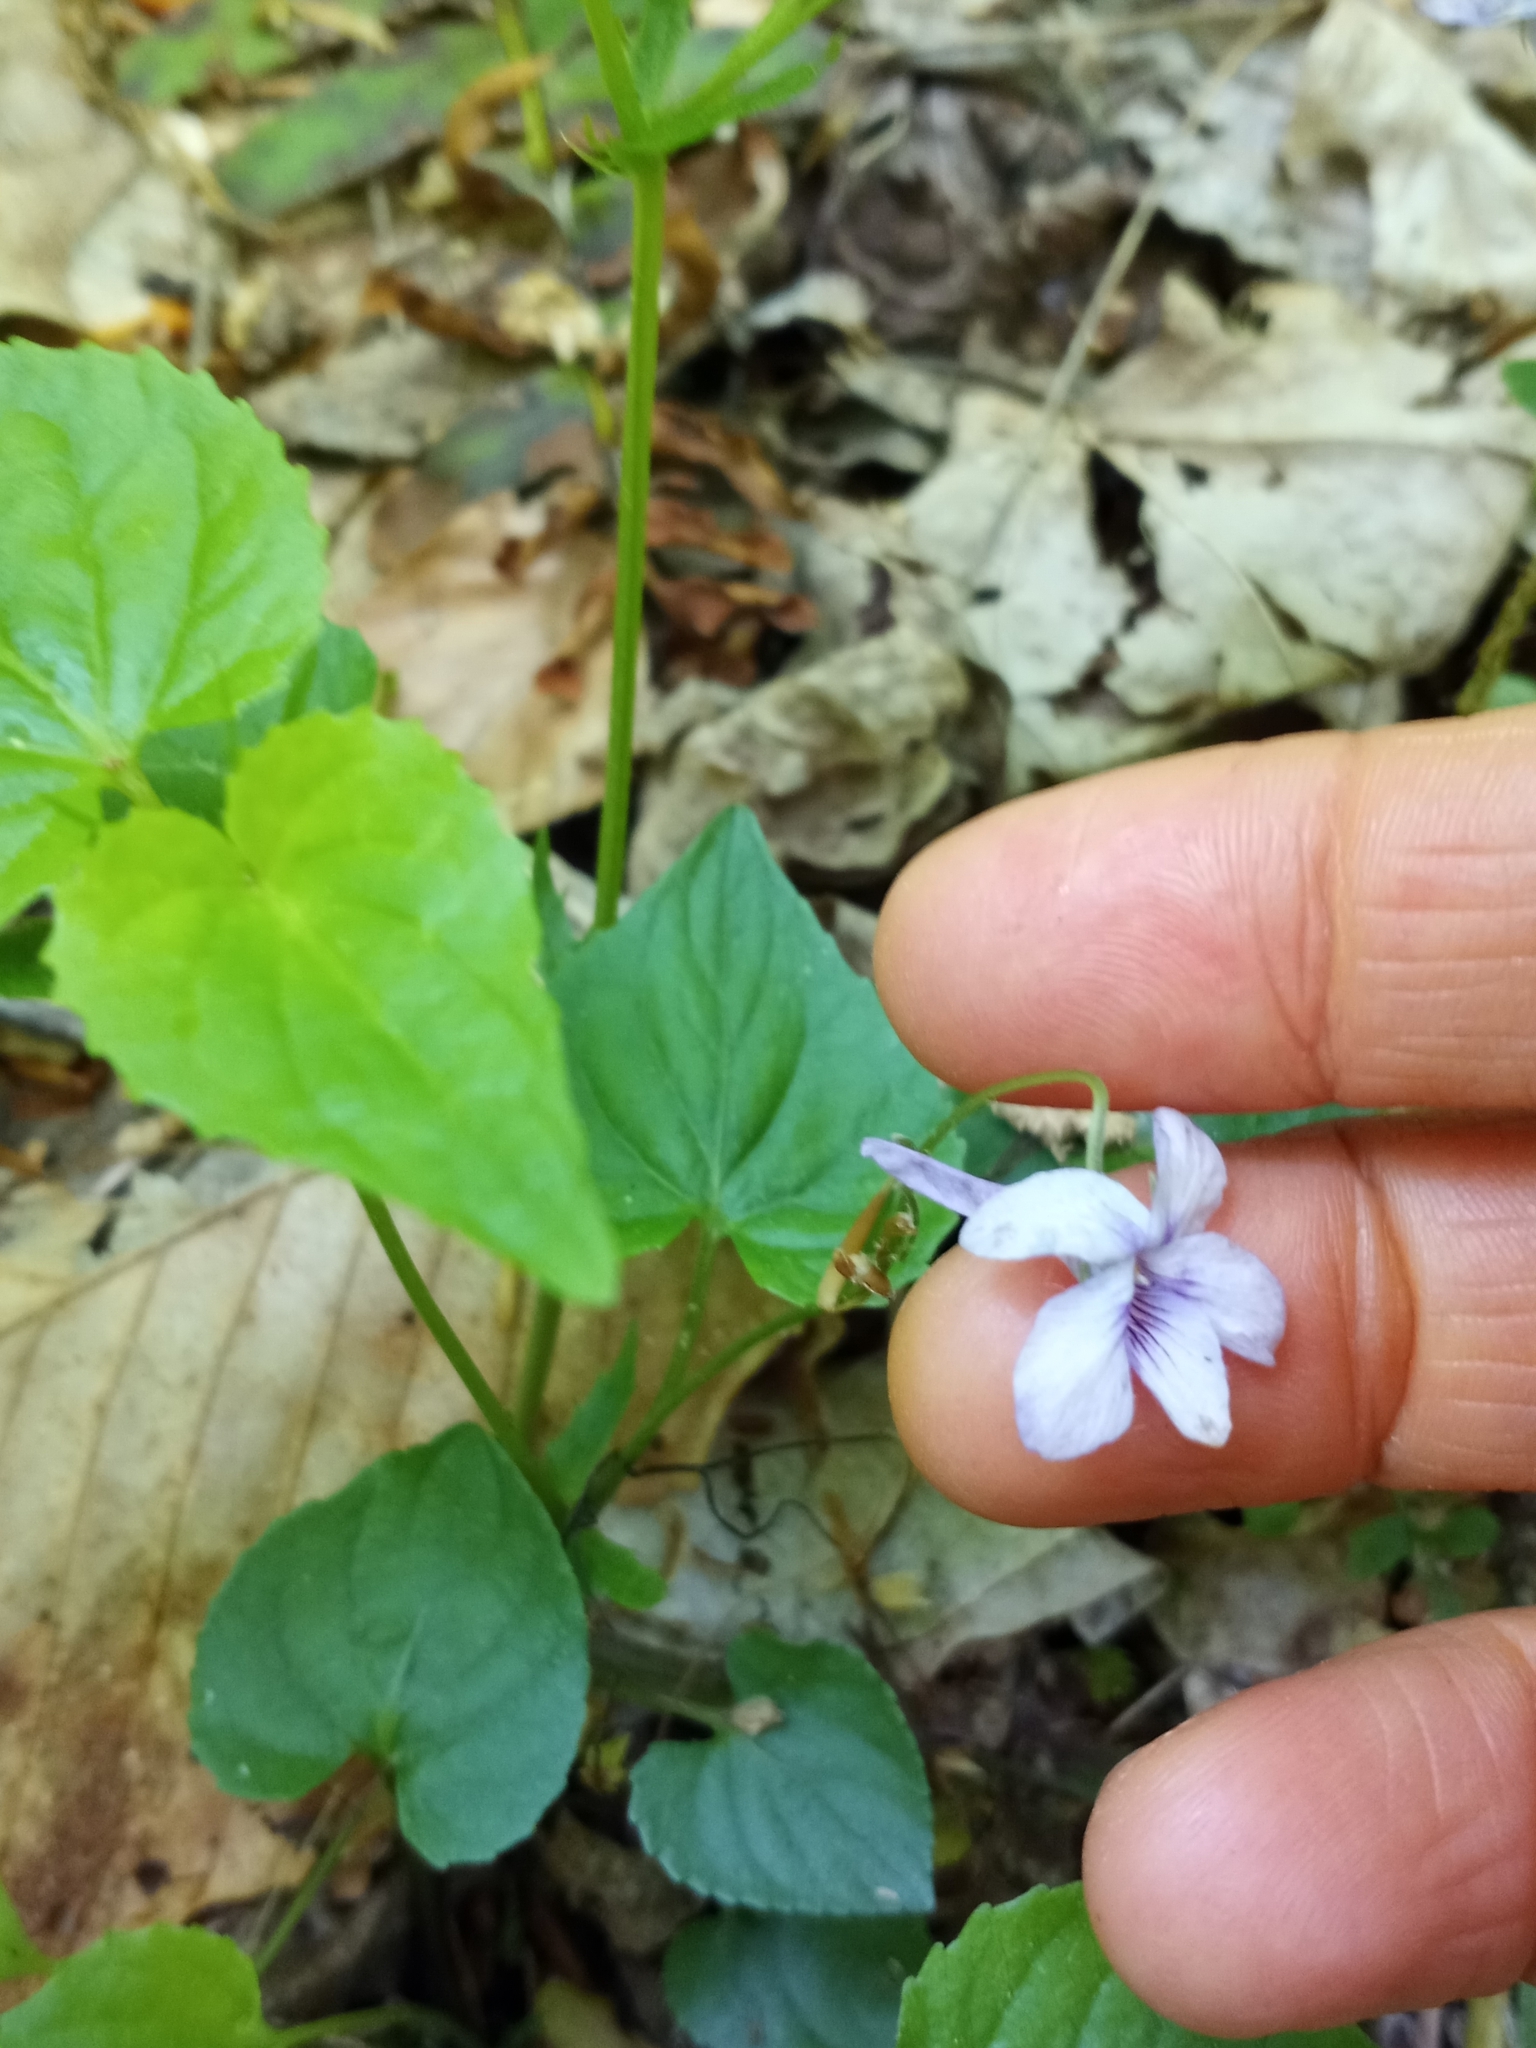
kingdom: Plantae
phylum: Tracheophyta
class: Magnoliopsida
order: Malpighiales
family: Violaceae
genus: Viola
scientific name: Viola rostrata
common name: Long-spur violet
